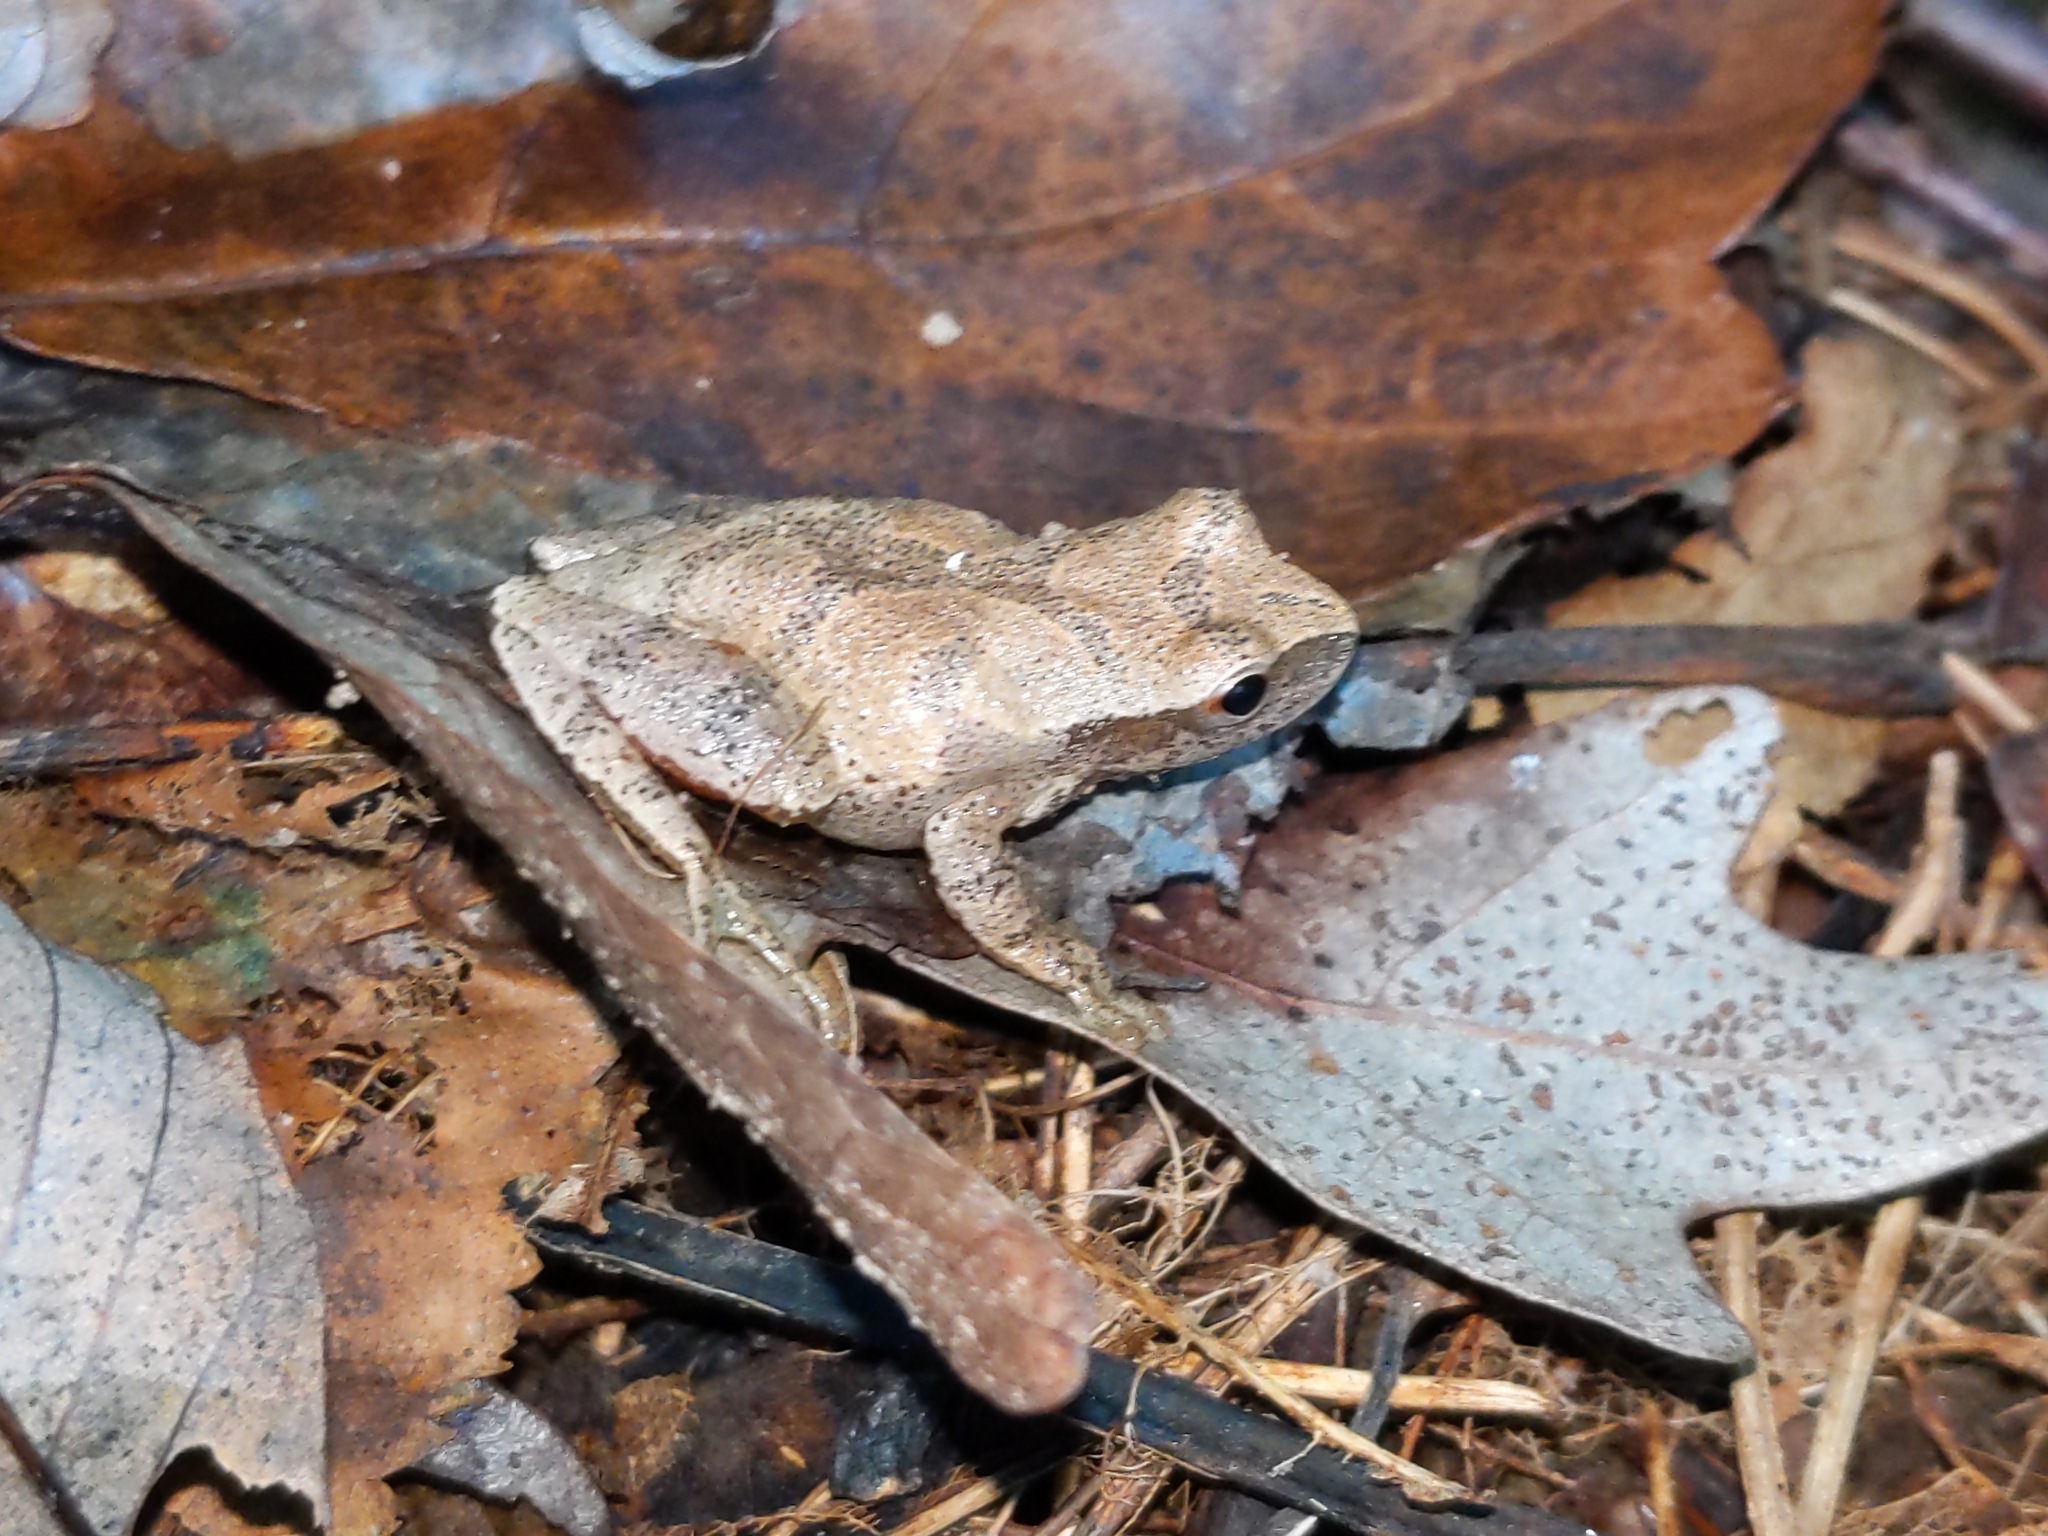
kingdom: Animalia
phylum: Chordata
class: Amphibia
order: Anura
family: Hylidae
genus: Pseudacris
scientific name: Pseudacris crucifer
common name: Spring peeper
